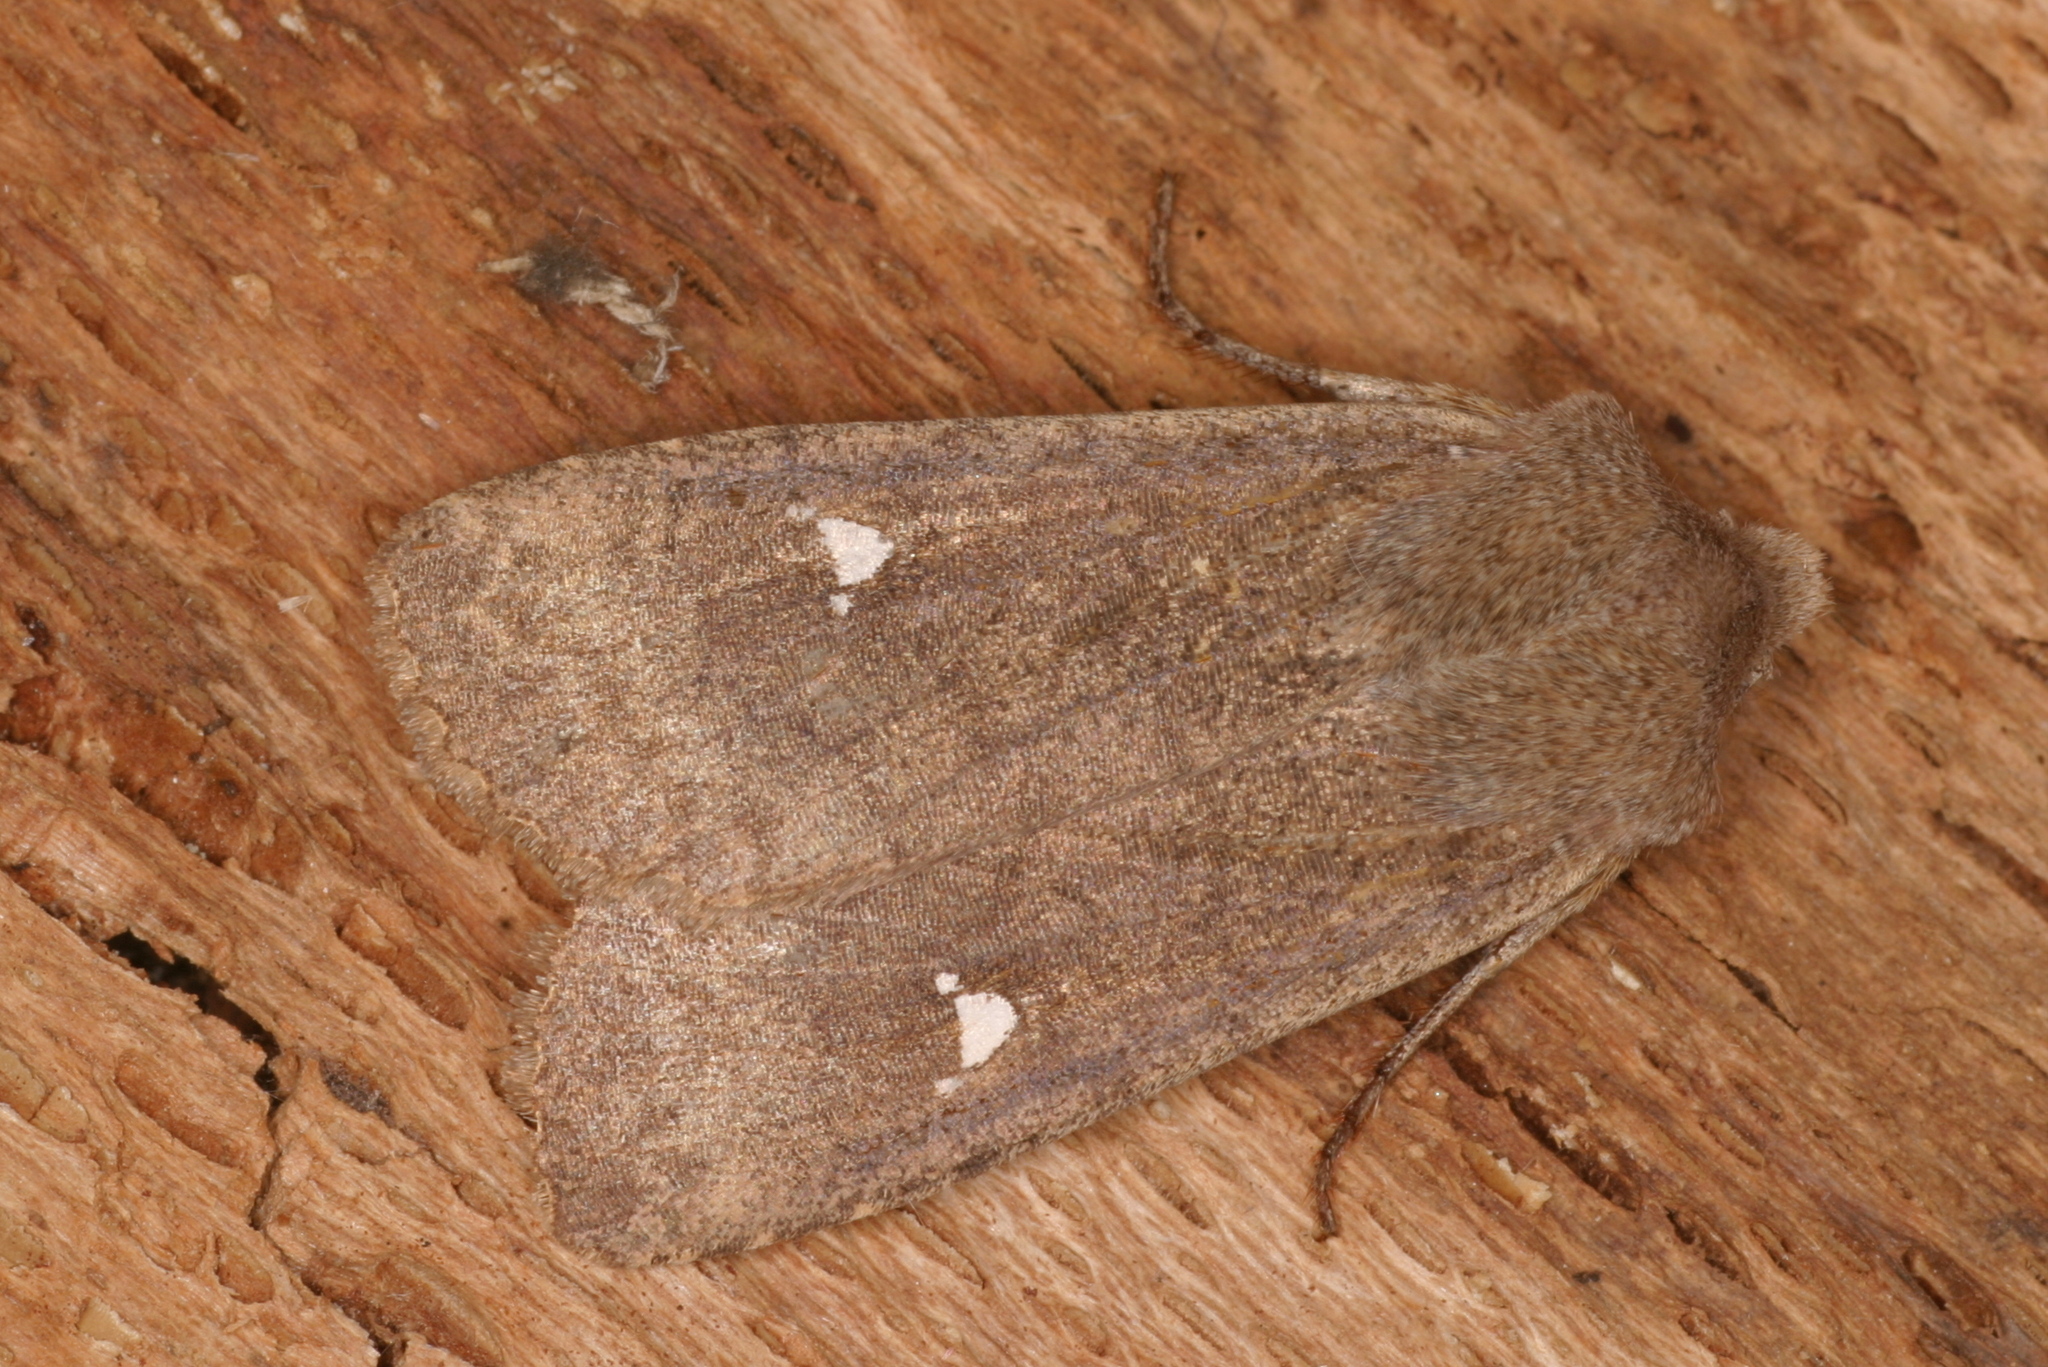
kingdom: Animalia
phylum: Arthropoda
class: Insecta
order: Lepidoptera
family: Noctuidae
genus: Eupsilia
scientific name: Eupsilia transversa
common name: Satellite
